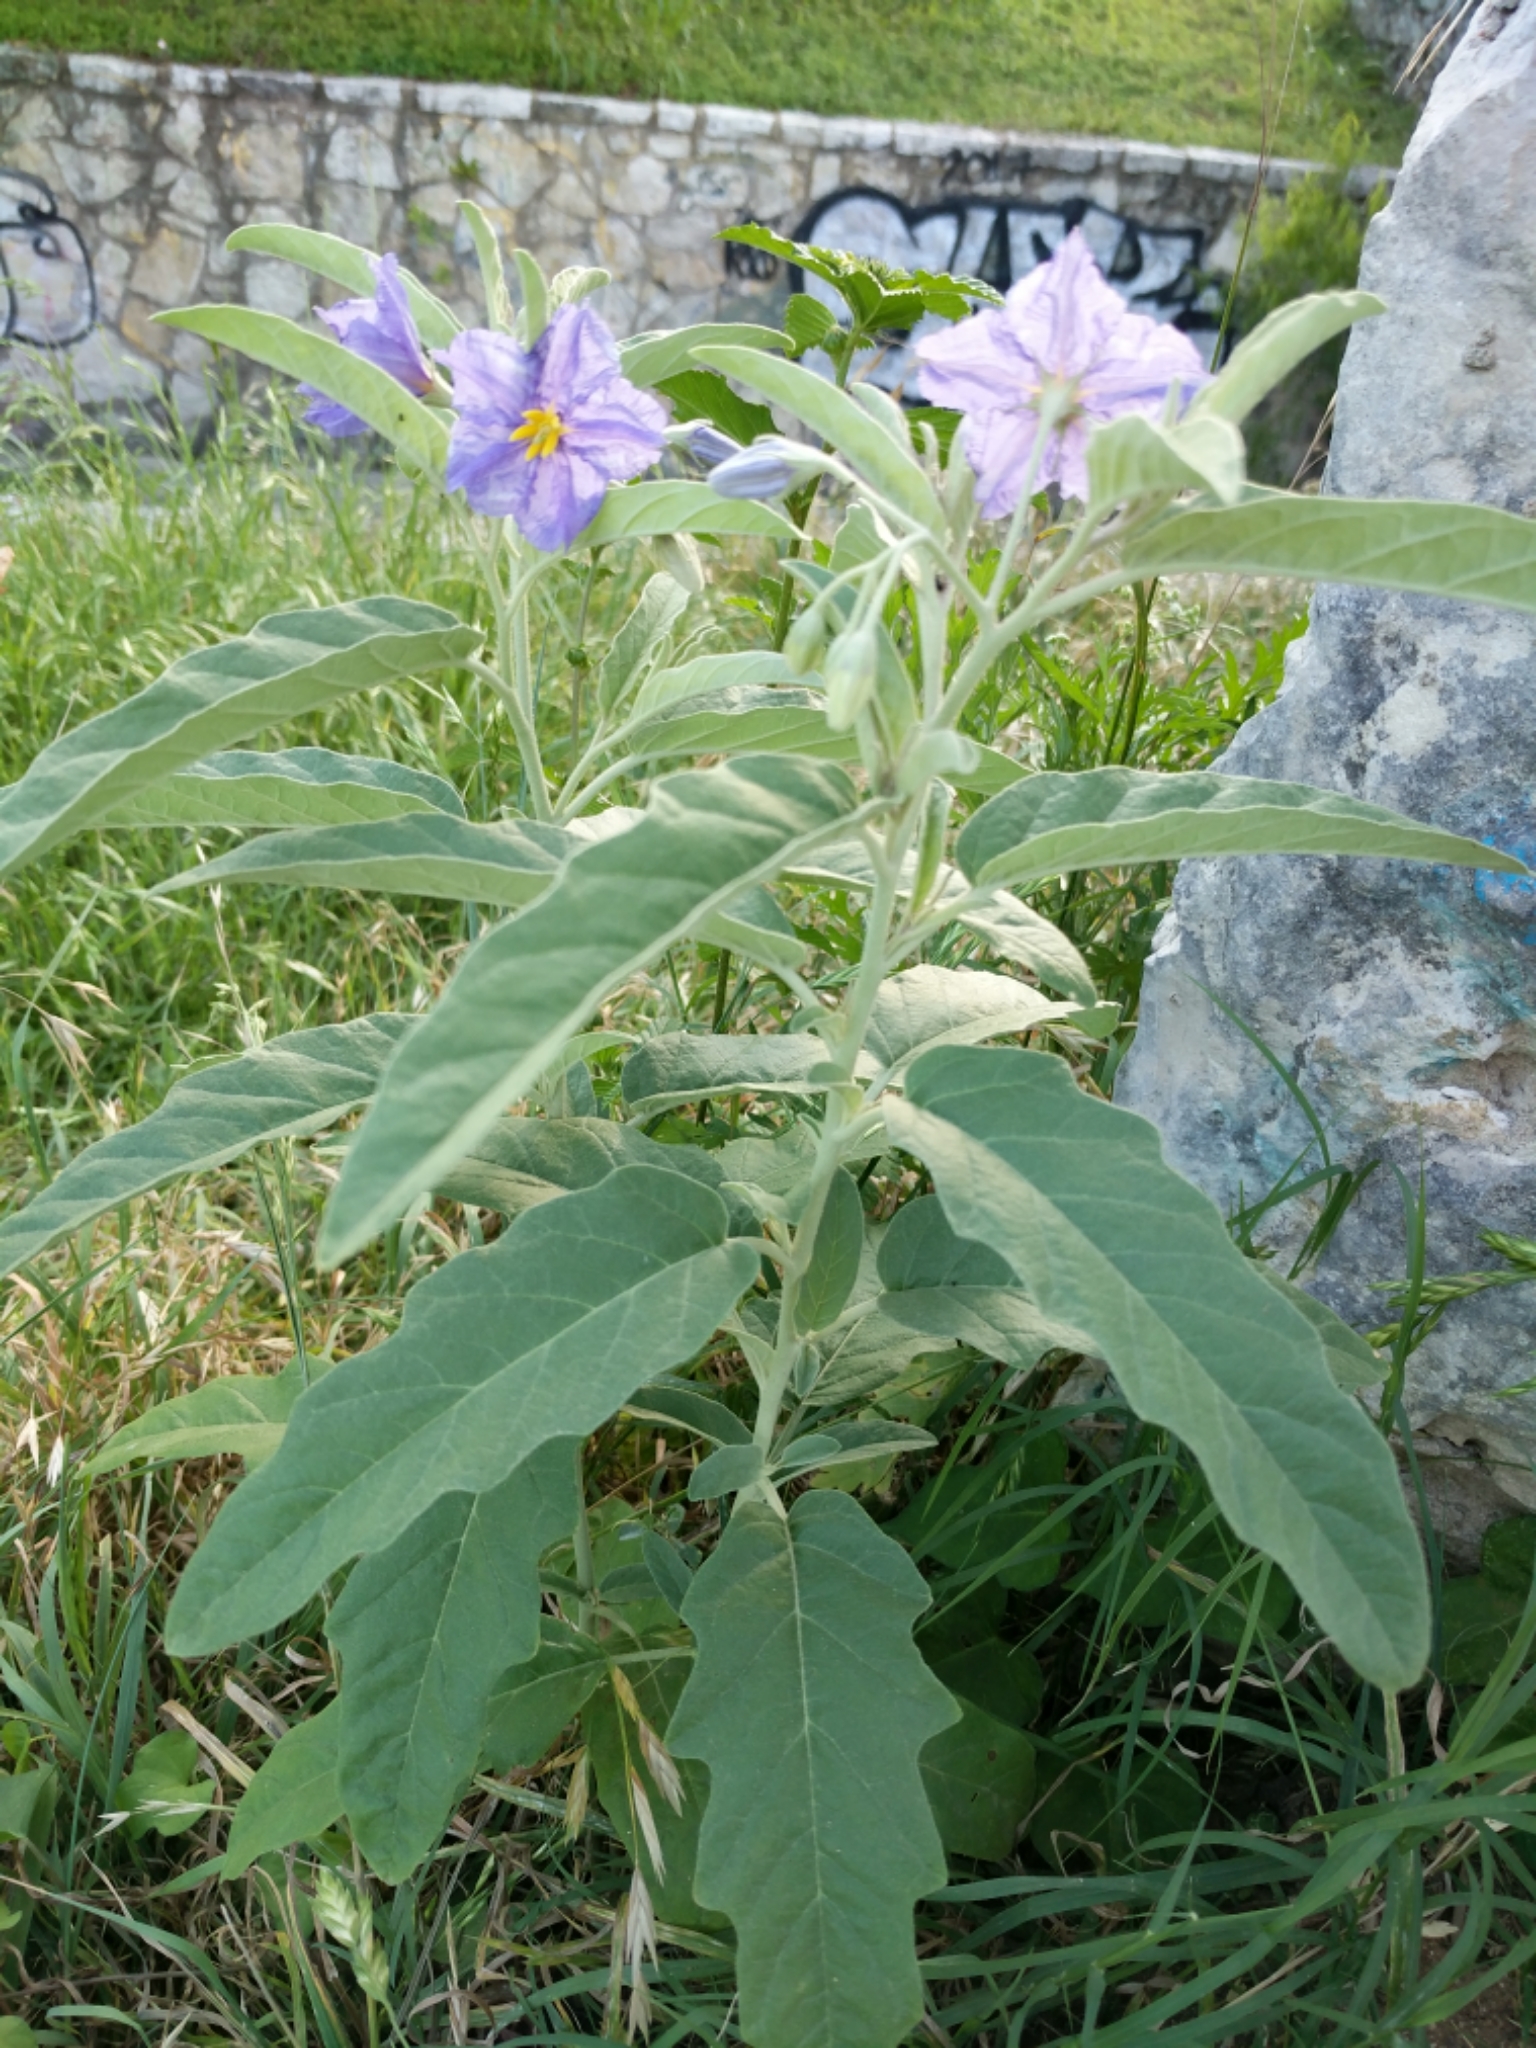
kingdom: Plantae
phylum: Tracheophyta
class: Magnoliopsida
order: Solanales
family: Solanaceae
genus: Solanum
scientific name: Solanum elaeagnifolium
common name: Silverleaf nightshade
